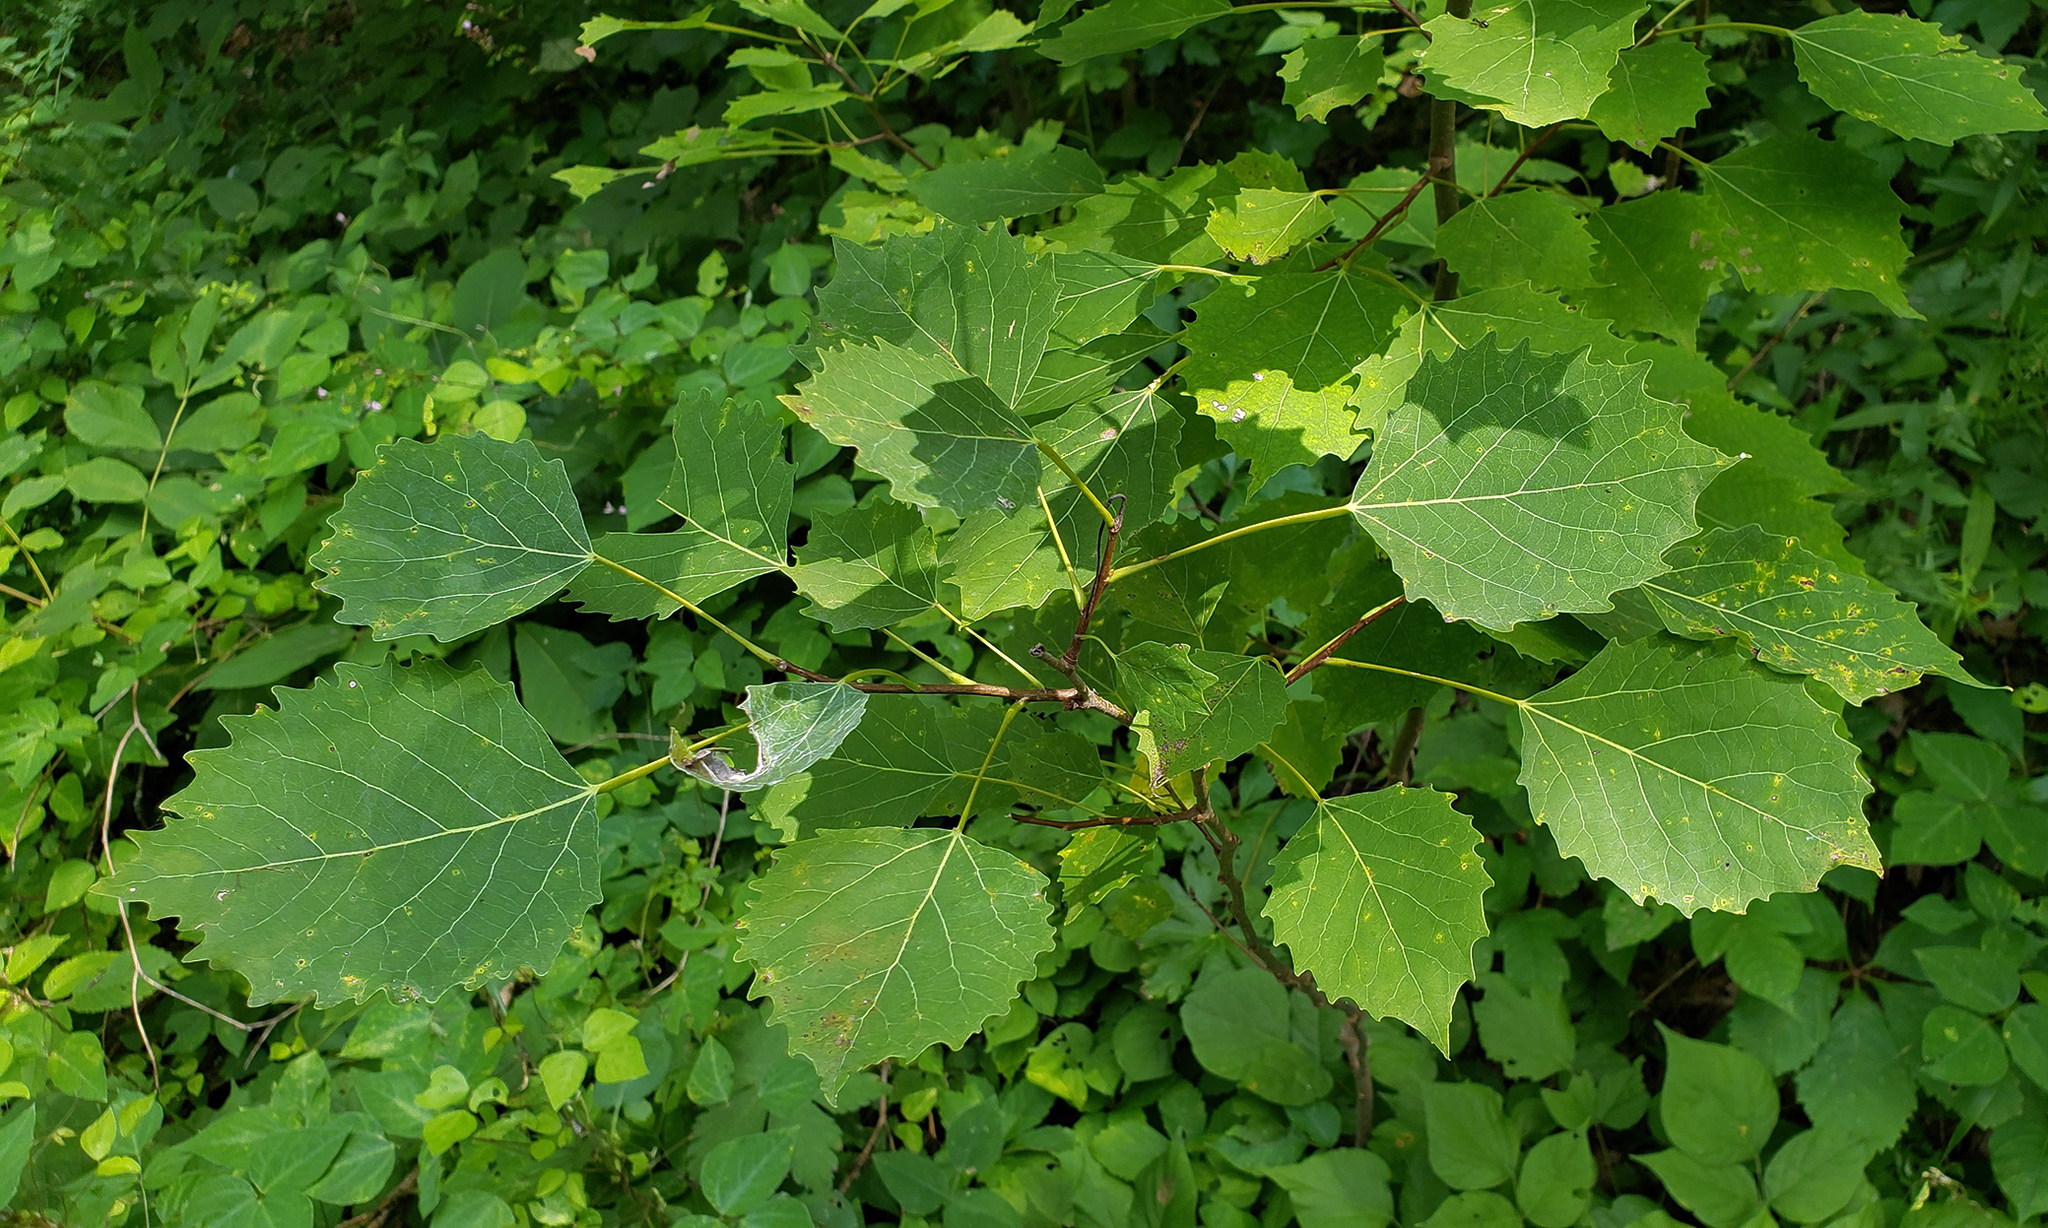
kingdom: Plantae
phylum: Tracheophyta
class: Magnoliopsida
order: Malpighiales
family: Salicaceae
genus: Populus
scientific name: Populus grandidentata
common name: Bigtooth aspen
